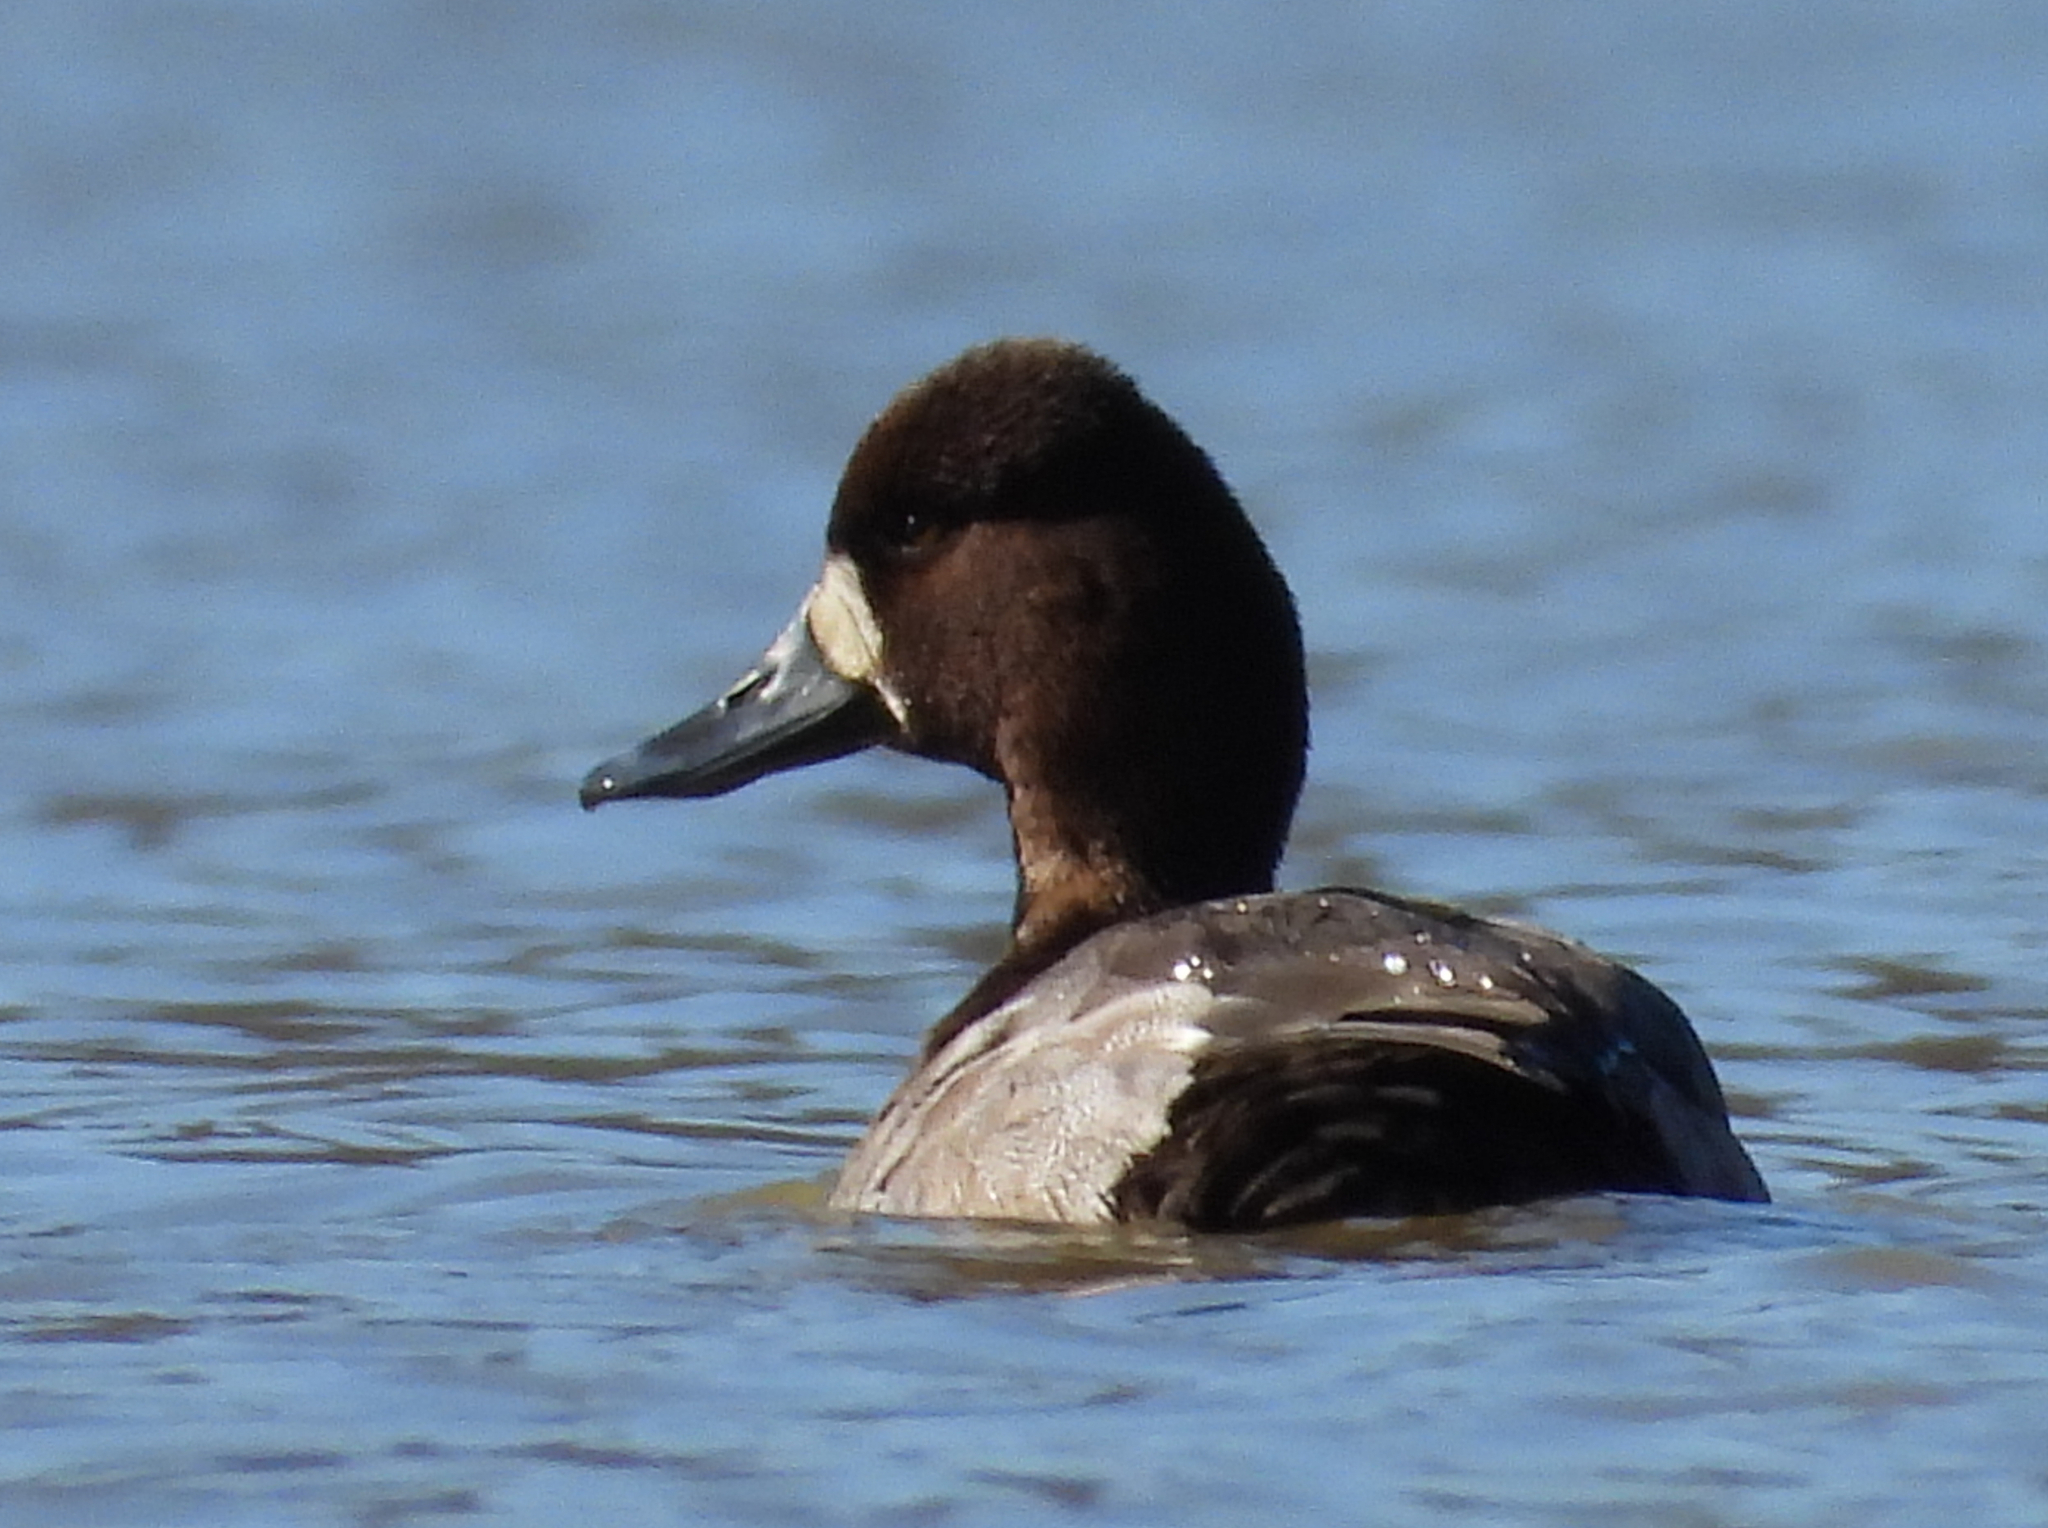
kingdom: Animalia
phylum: Chordata
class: Aves
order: Anseriformes
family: Anatidae
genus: Aythya
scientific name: Aythya affinis
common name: Lesser scaup
